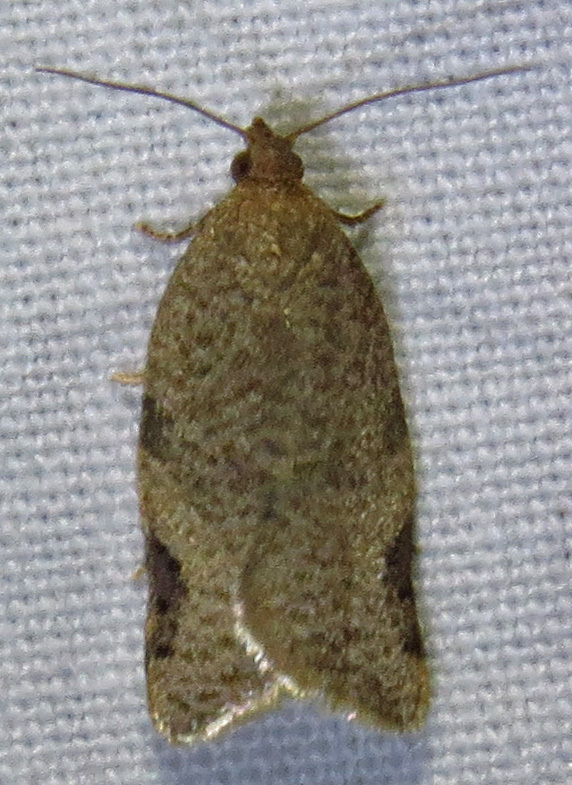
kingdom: Animalia
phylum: Arthropoda
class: Insecta
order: Lepidoptera
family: Tortricidae
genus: Clepsis
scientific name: Clepsis virescana
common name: Greenish apple moth
